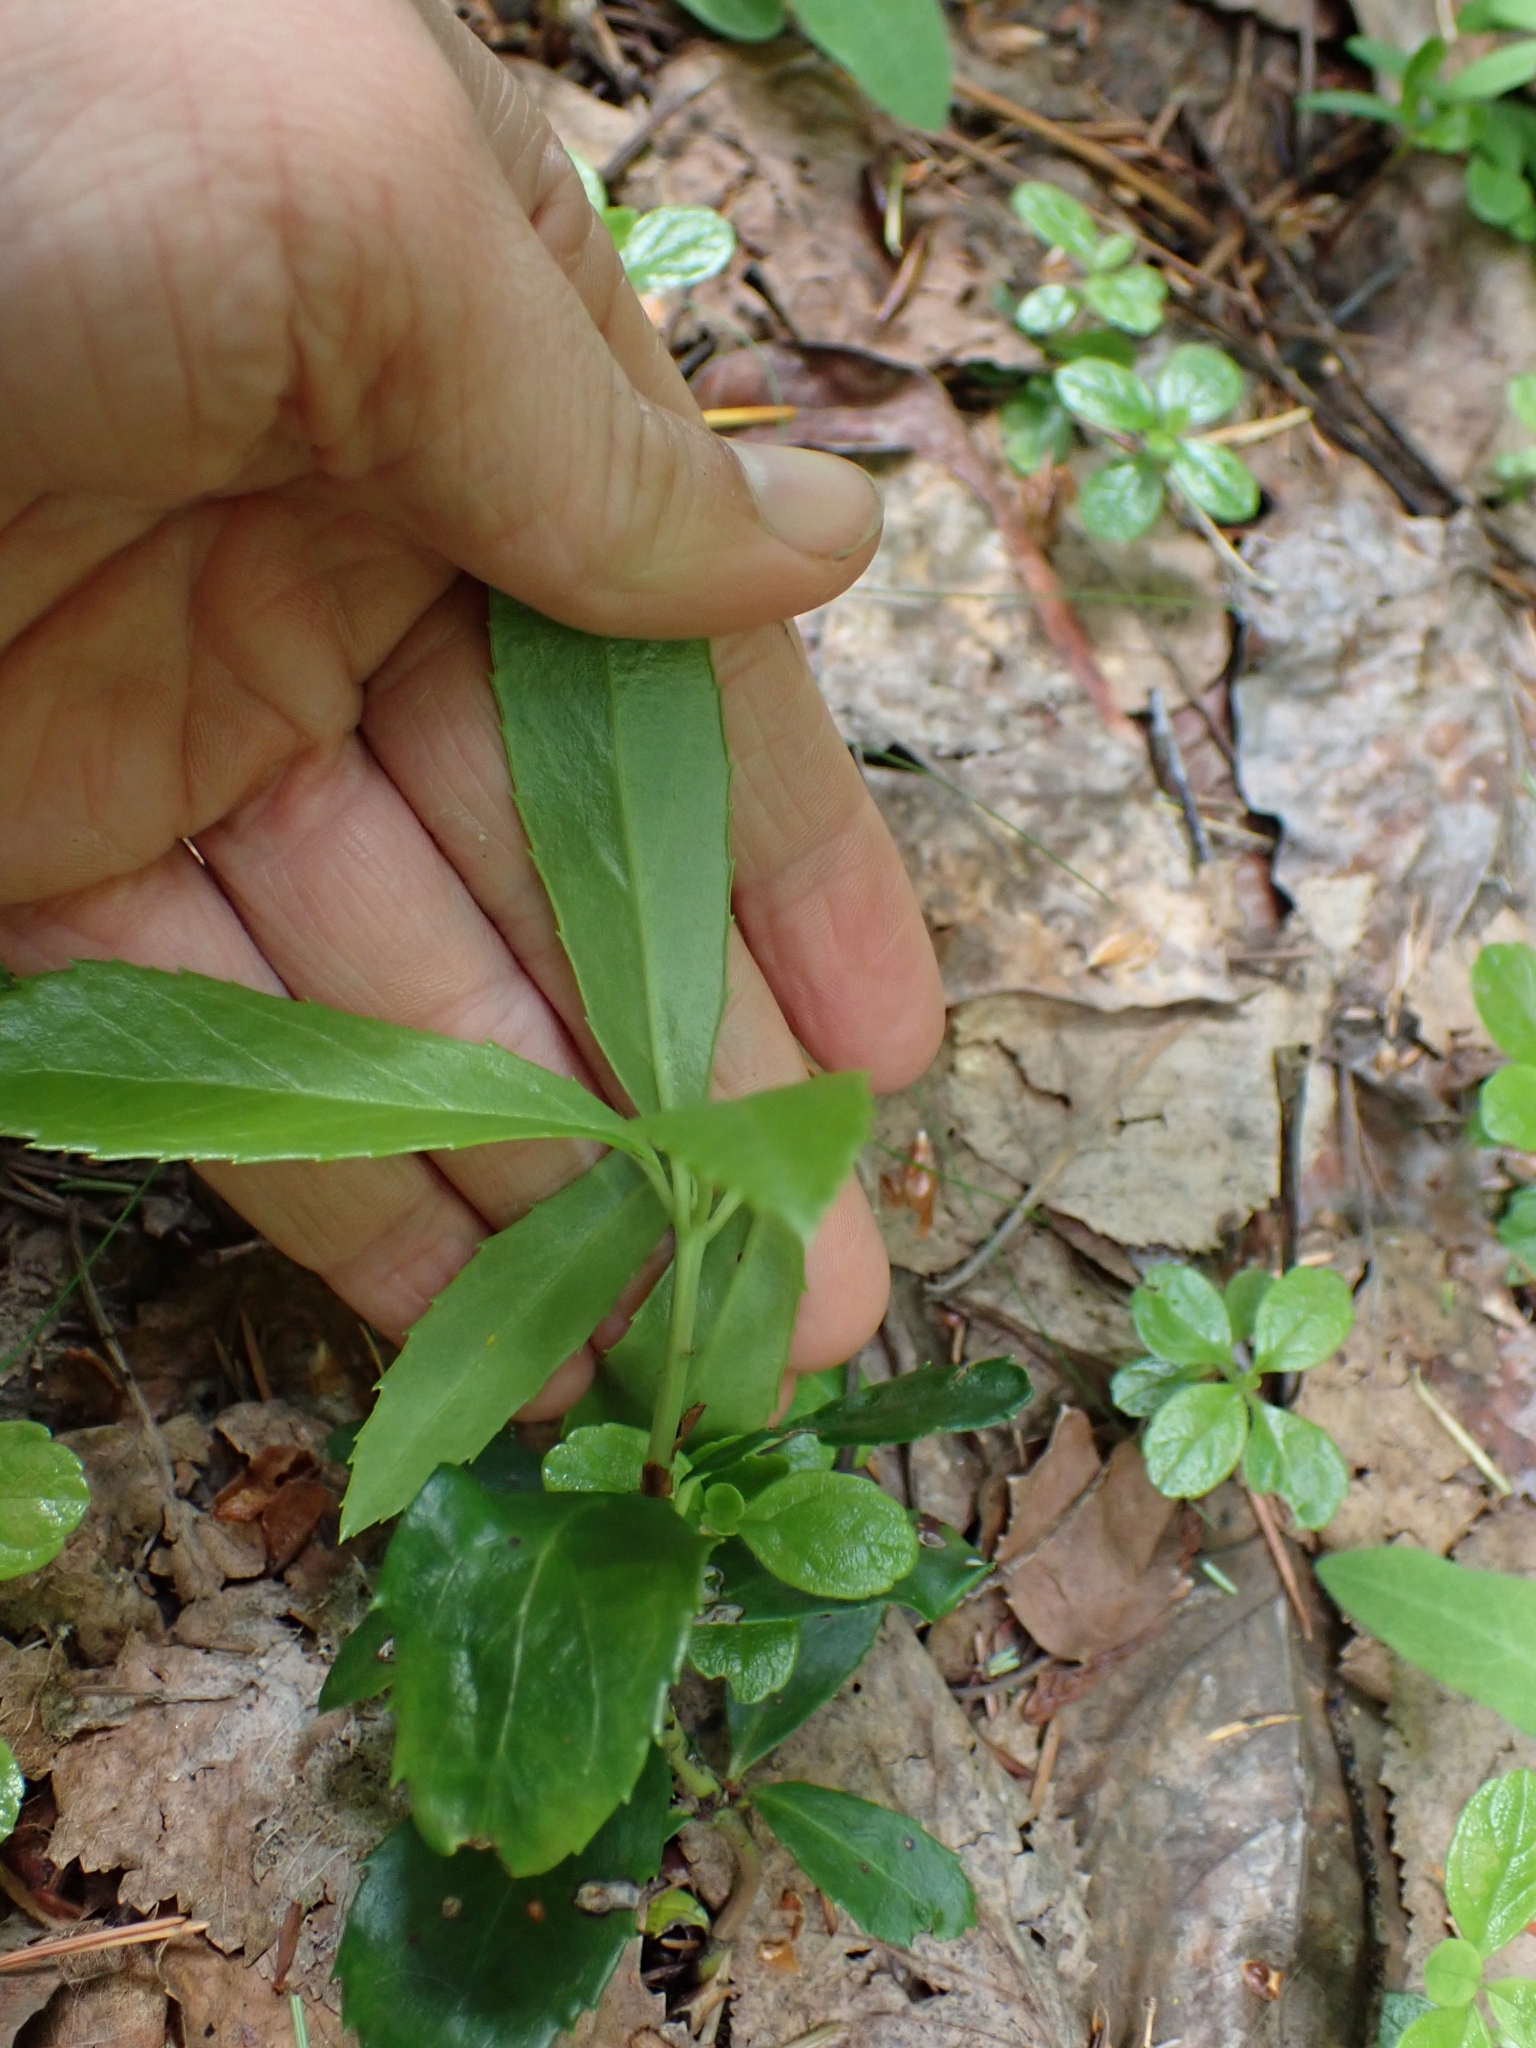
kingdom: Plantae
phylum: Tracheophyta
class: Magnoliopsida
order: Ericales
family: Ericaceae
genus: Chimaphila
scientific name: Chimaphila umbellata
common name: Pipsissewa
